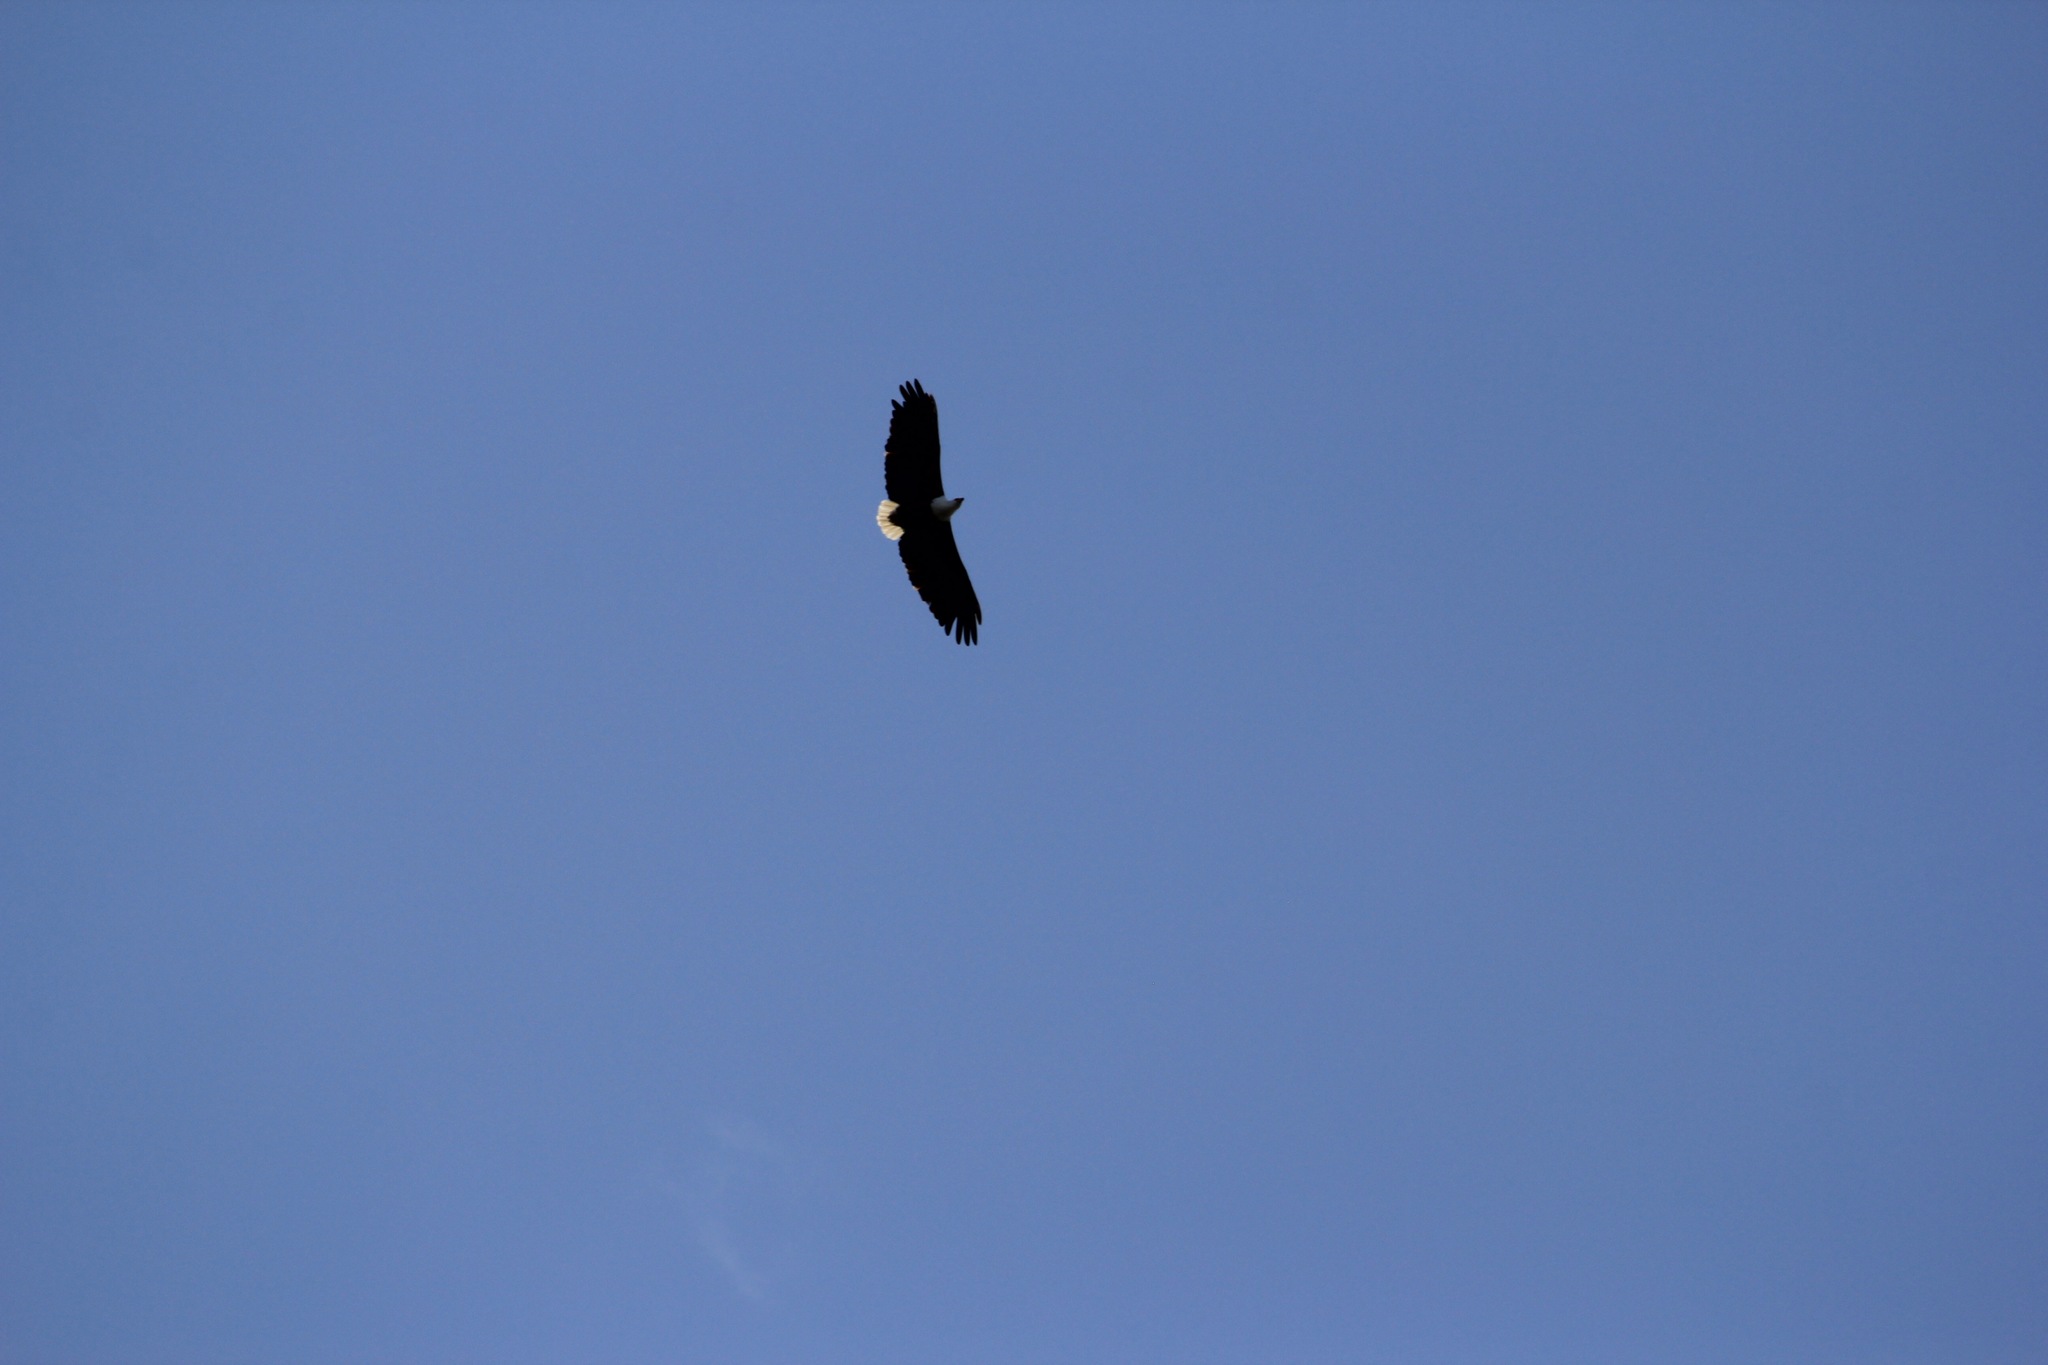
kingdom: Animalia
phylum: Chordata
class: Aves
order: Accipitriformes
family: Accipitridae
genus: Haliaeetus
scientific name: Haliaeetus vocifer
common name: African fish eagle
